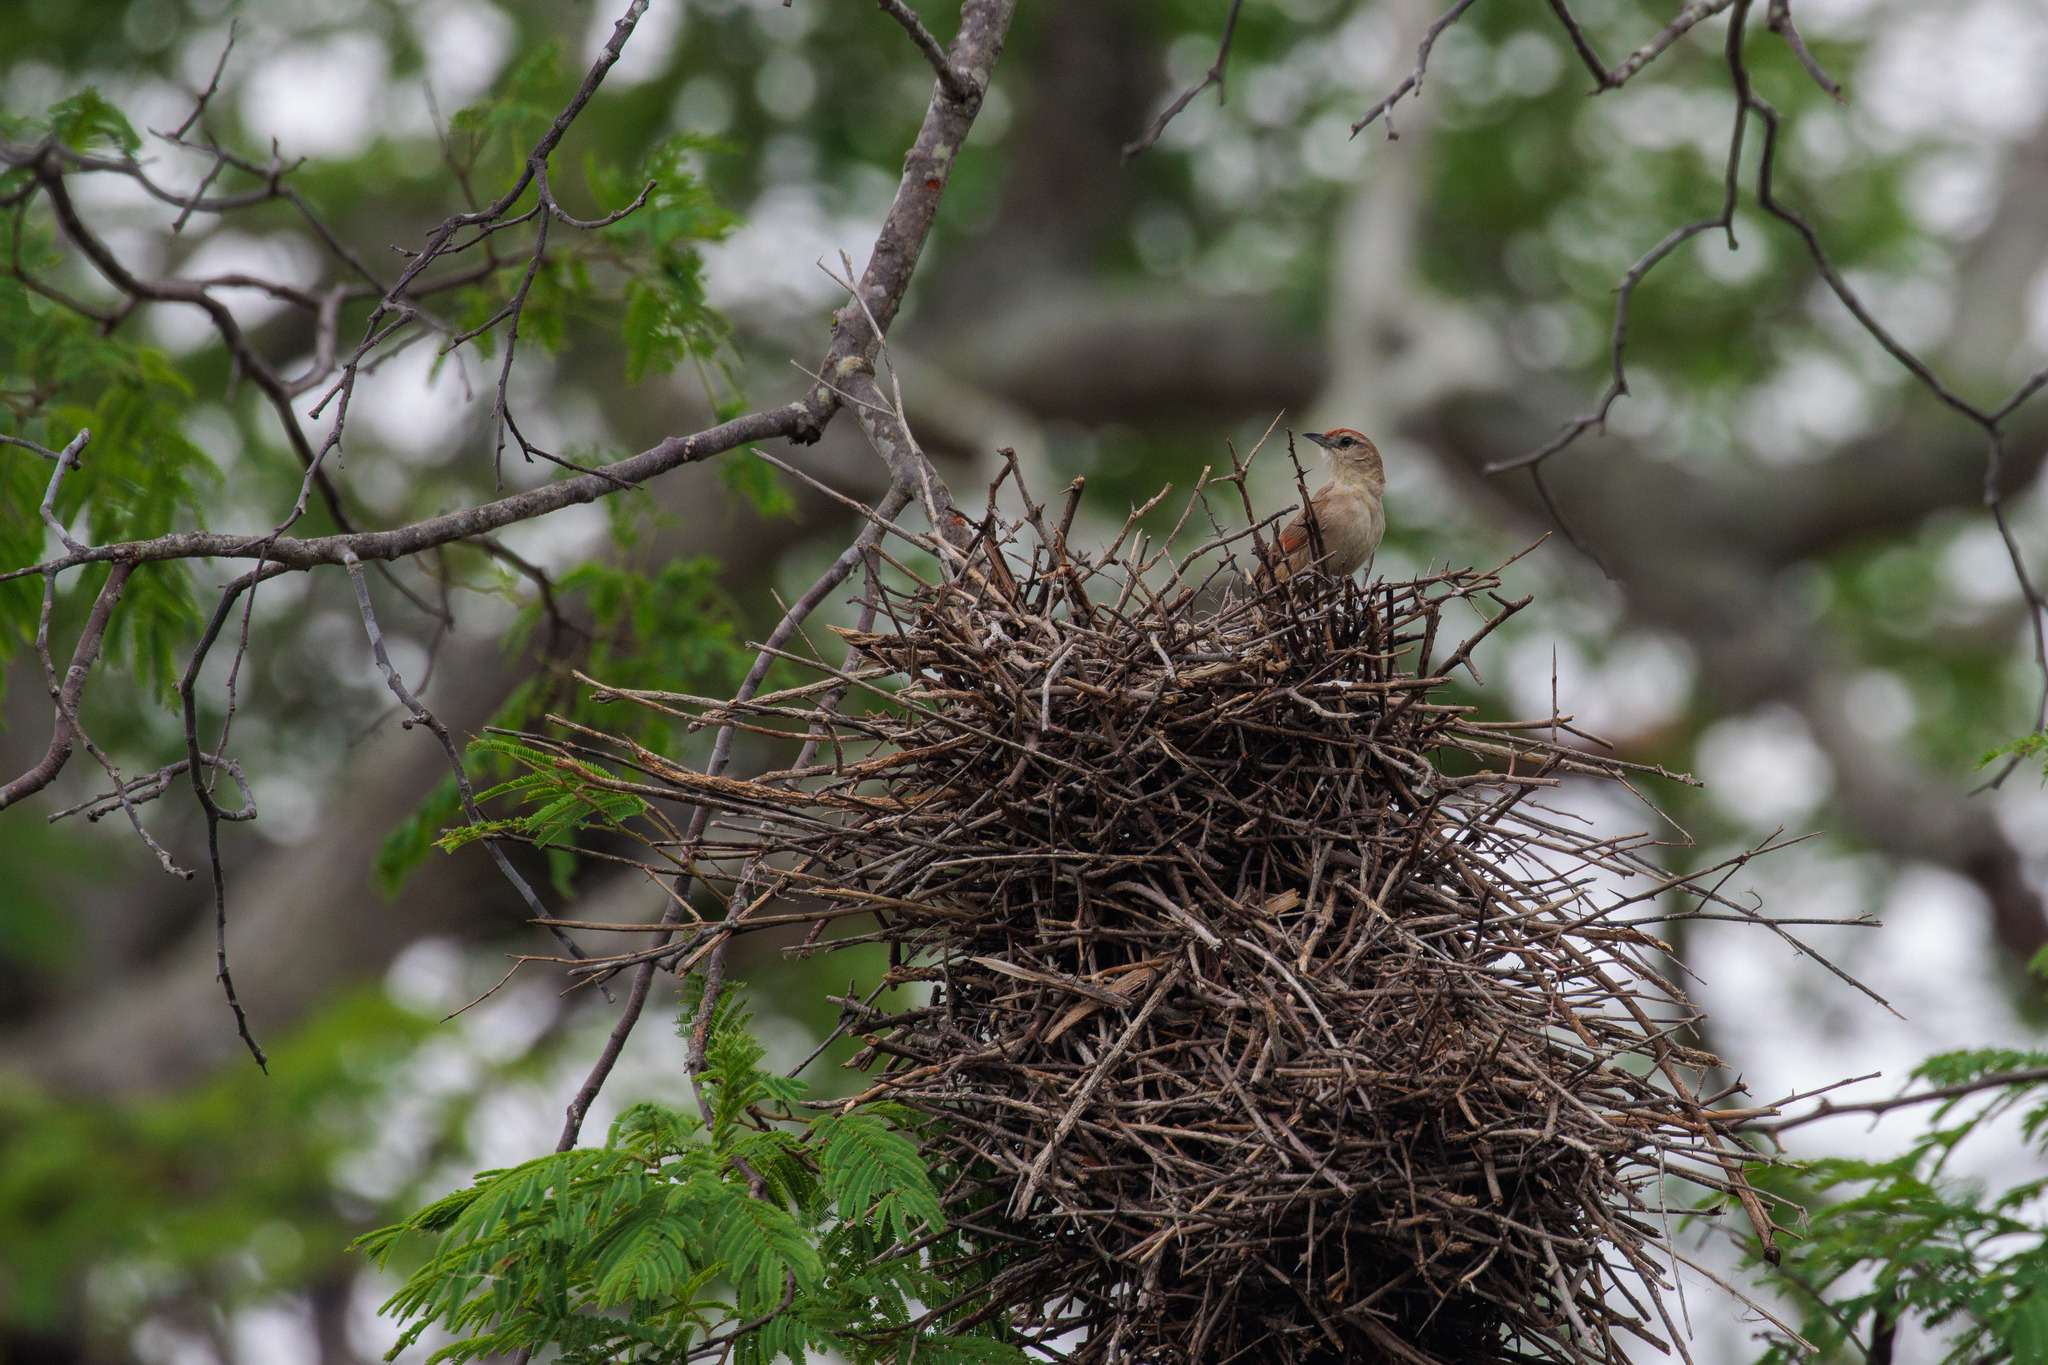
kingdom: Animalia
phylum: Chordata
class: Aves
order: Passeriformes
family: Furnariidae
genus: Phacellodomus
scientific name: Phacellodomus rufifrons
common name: Rufous-fronted thornbird
